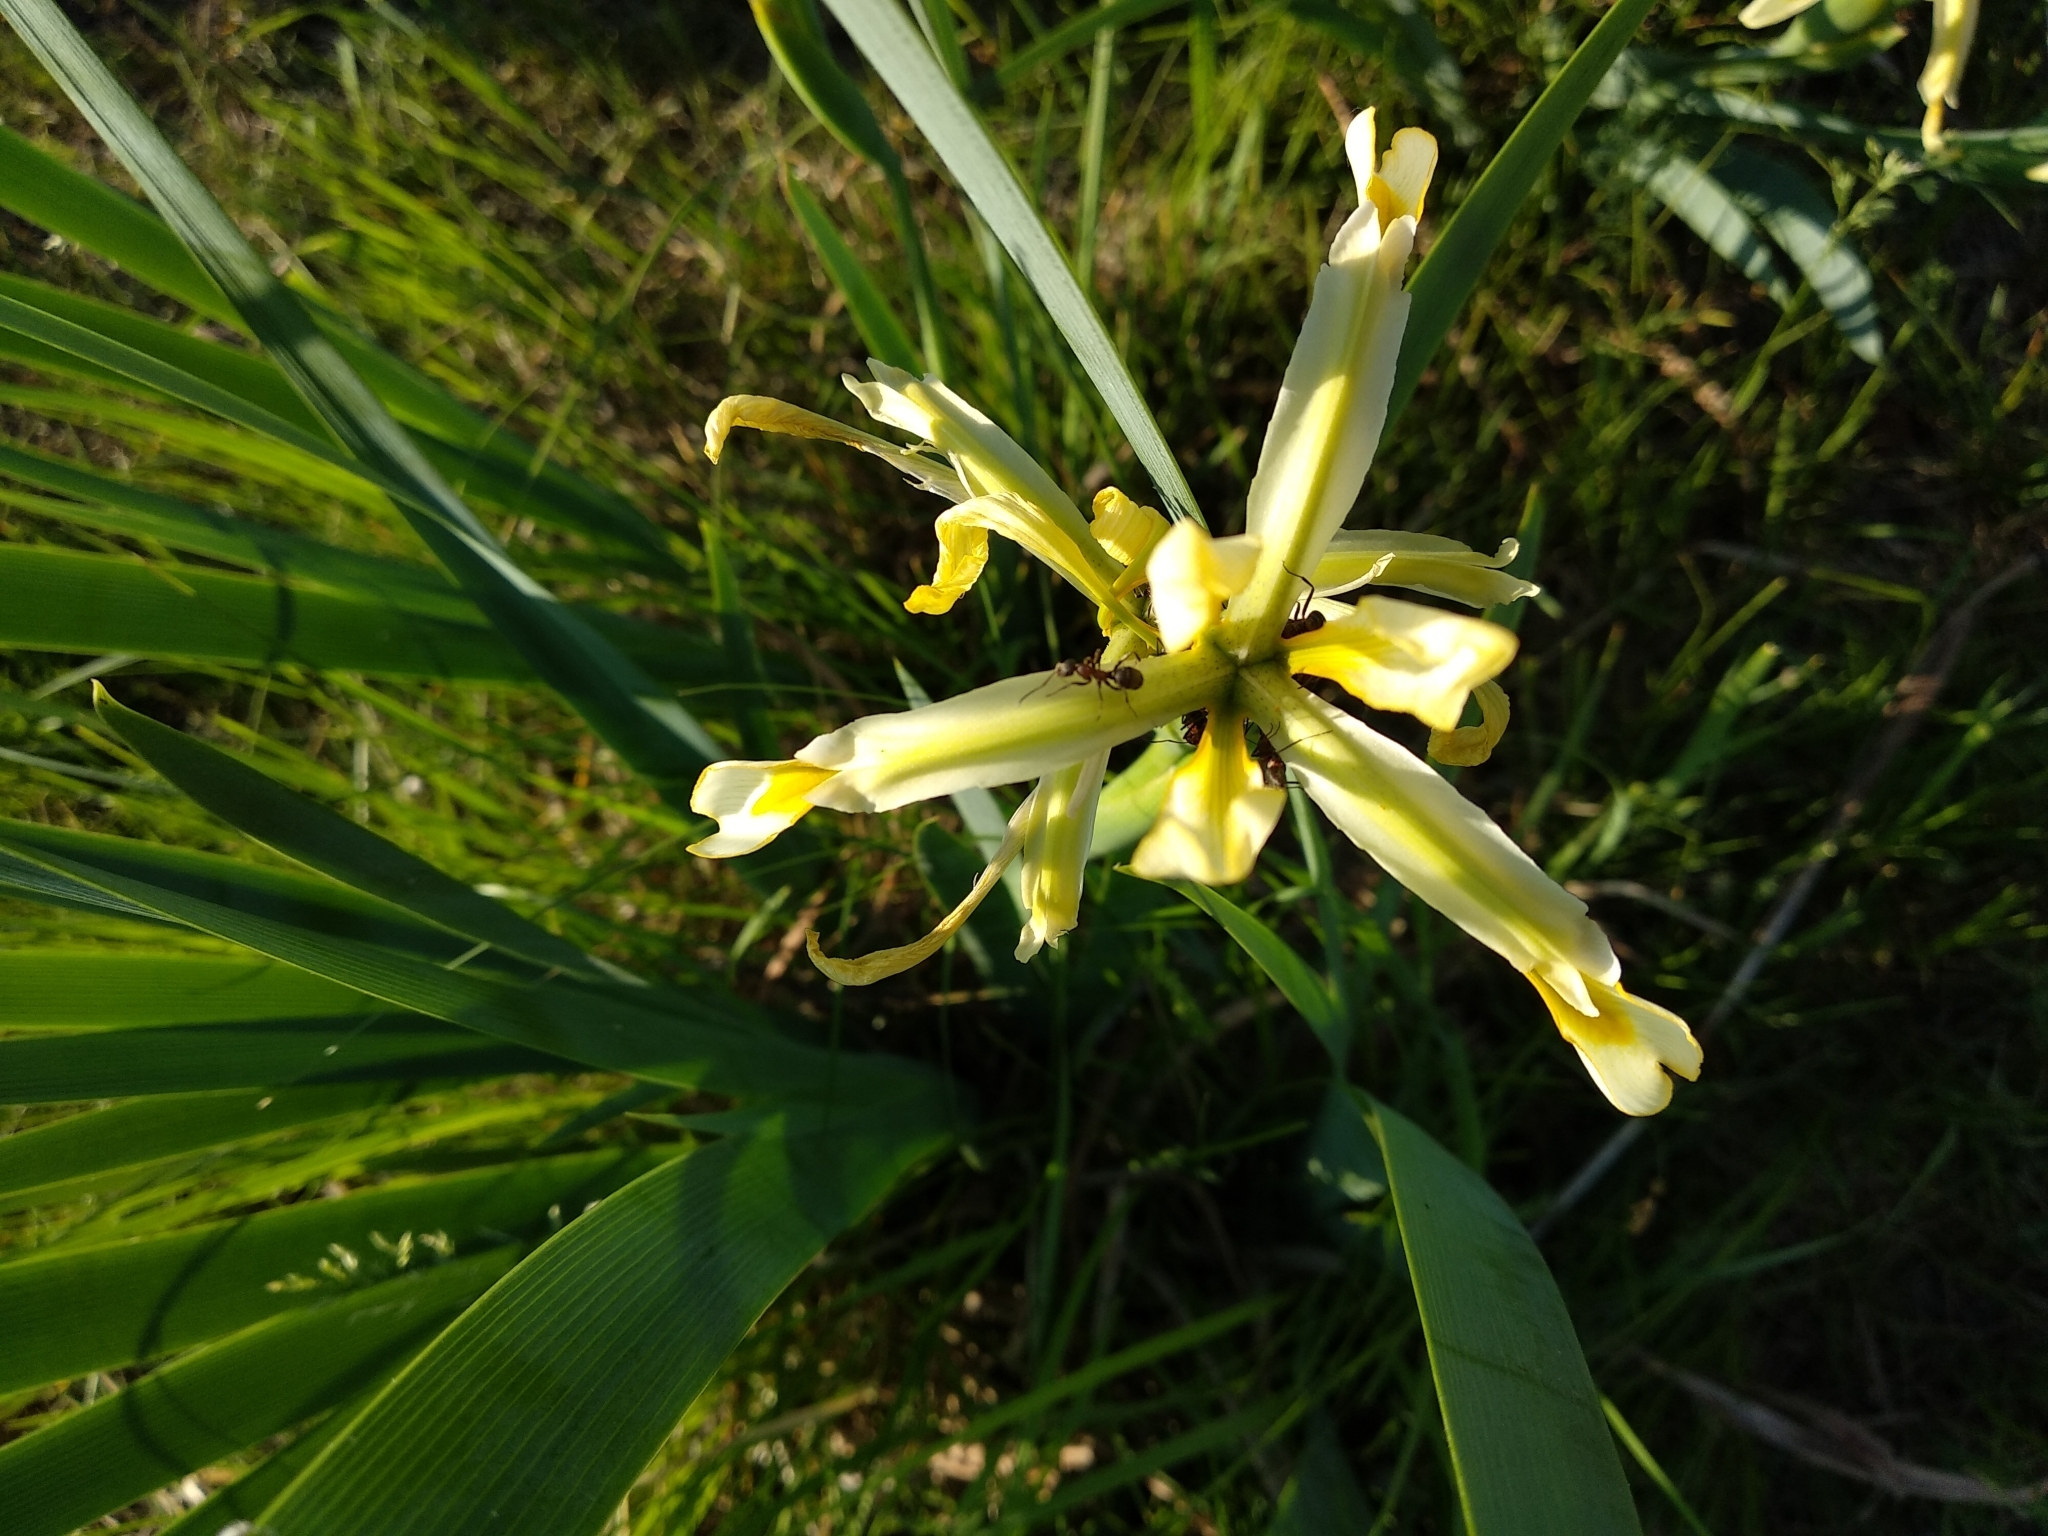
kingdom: Plantae
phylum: Tracheophyta
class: Liliopsida
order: Asparagales
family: Iridaceae
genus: Iris
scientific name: Iris halophila
